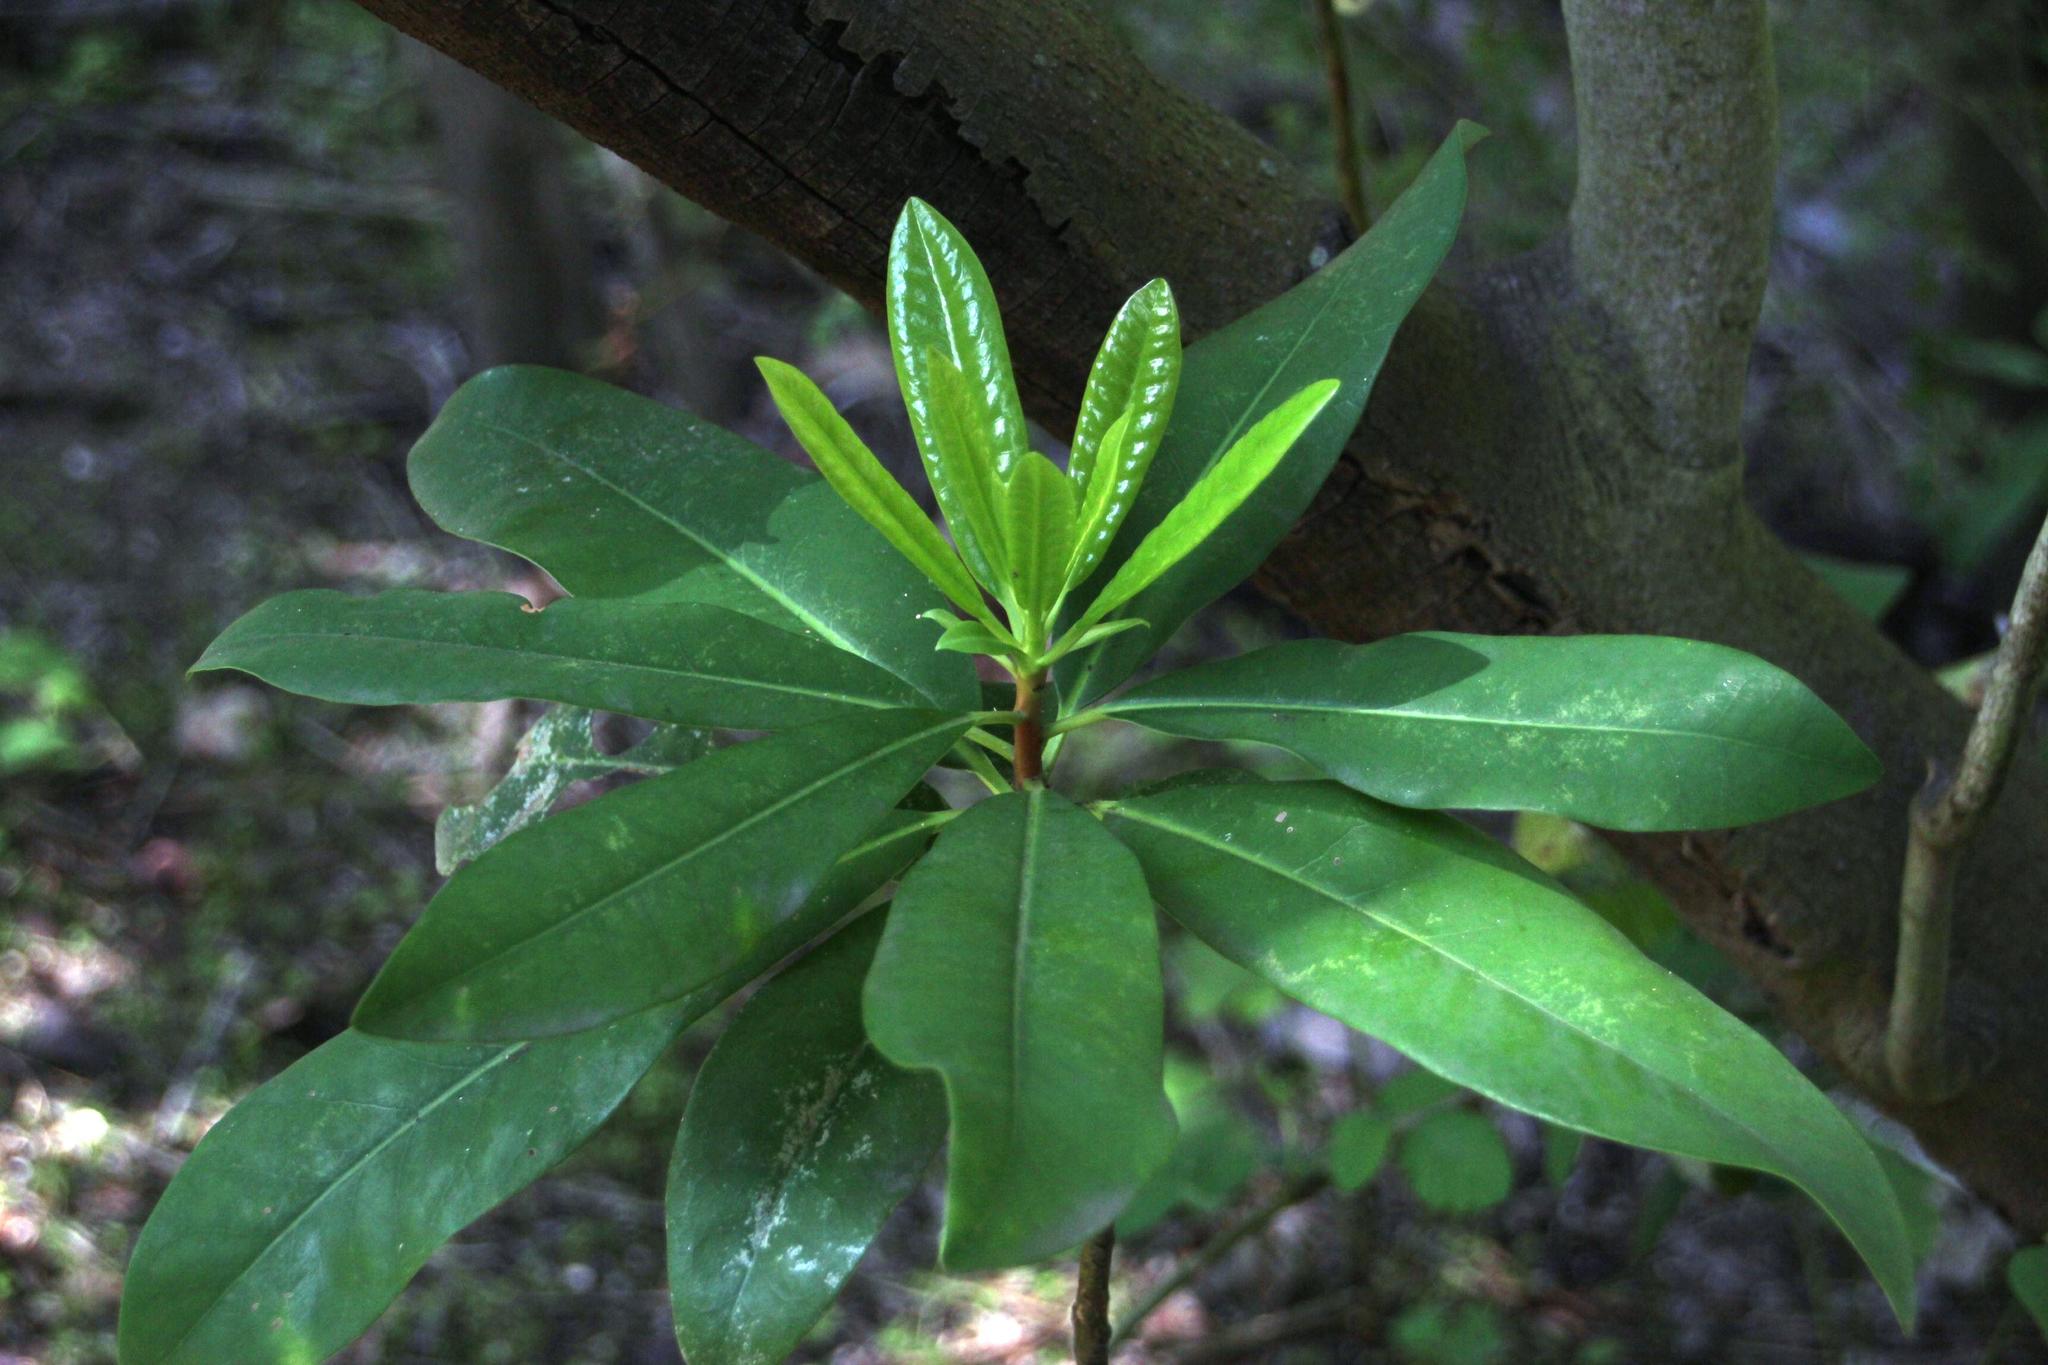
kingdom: Plantae
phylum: Tracheophyta
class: Magnoliopsida
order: Canellales
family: Winteraceae
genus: Drimys
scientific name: Drimys winteri
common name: Winter's-bark
